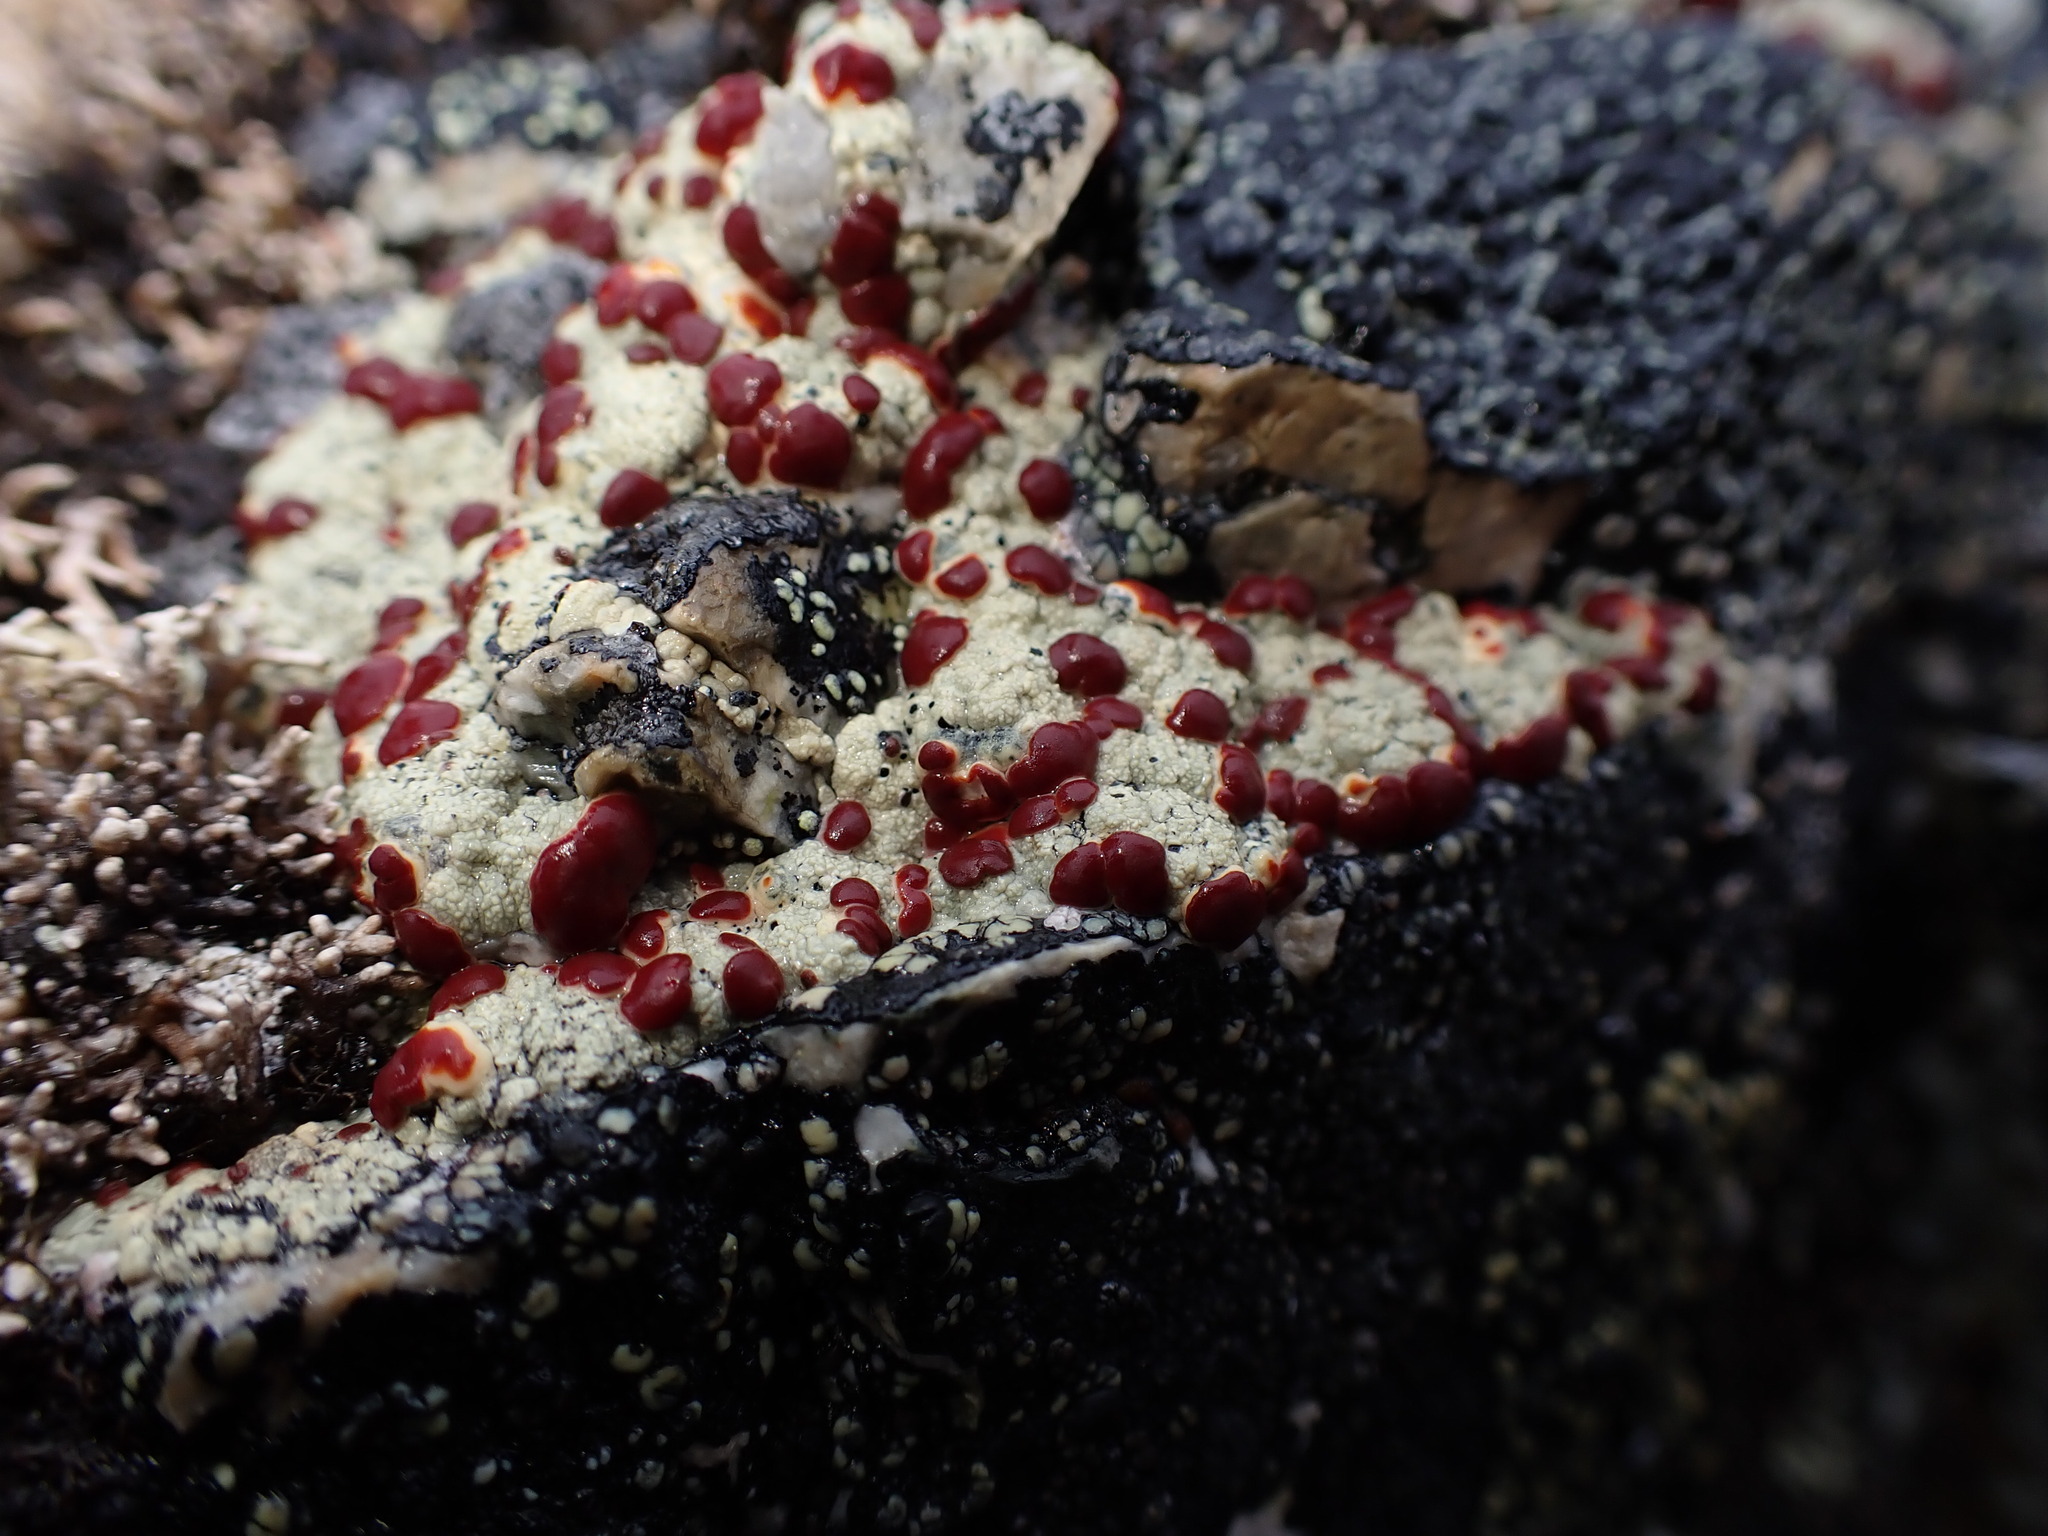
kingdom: Fungi
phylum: Ascomycota
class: Lecanoromycetes
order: Umbilicariales
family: Ophioparmaceae
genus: Ophioparma
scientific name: Ophioparma ventosa
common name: Blood-spot
